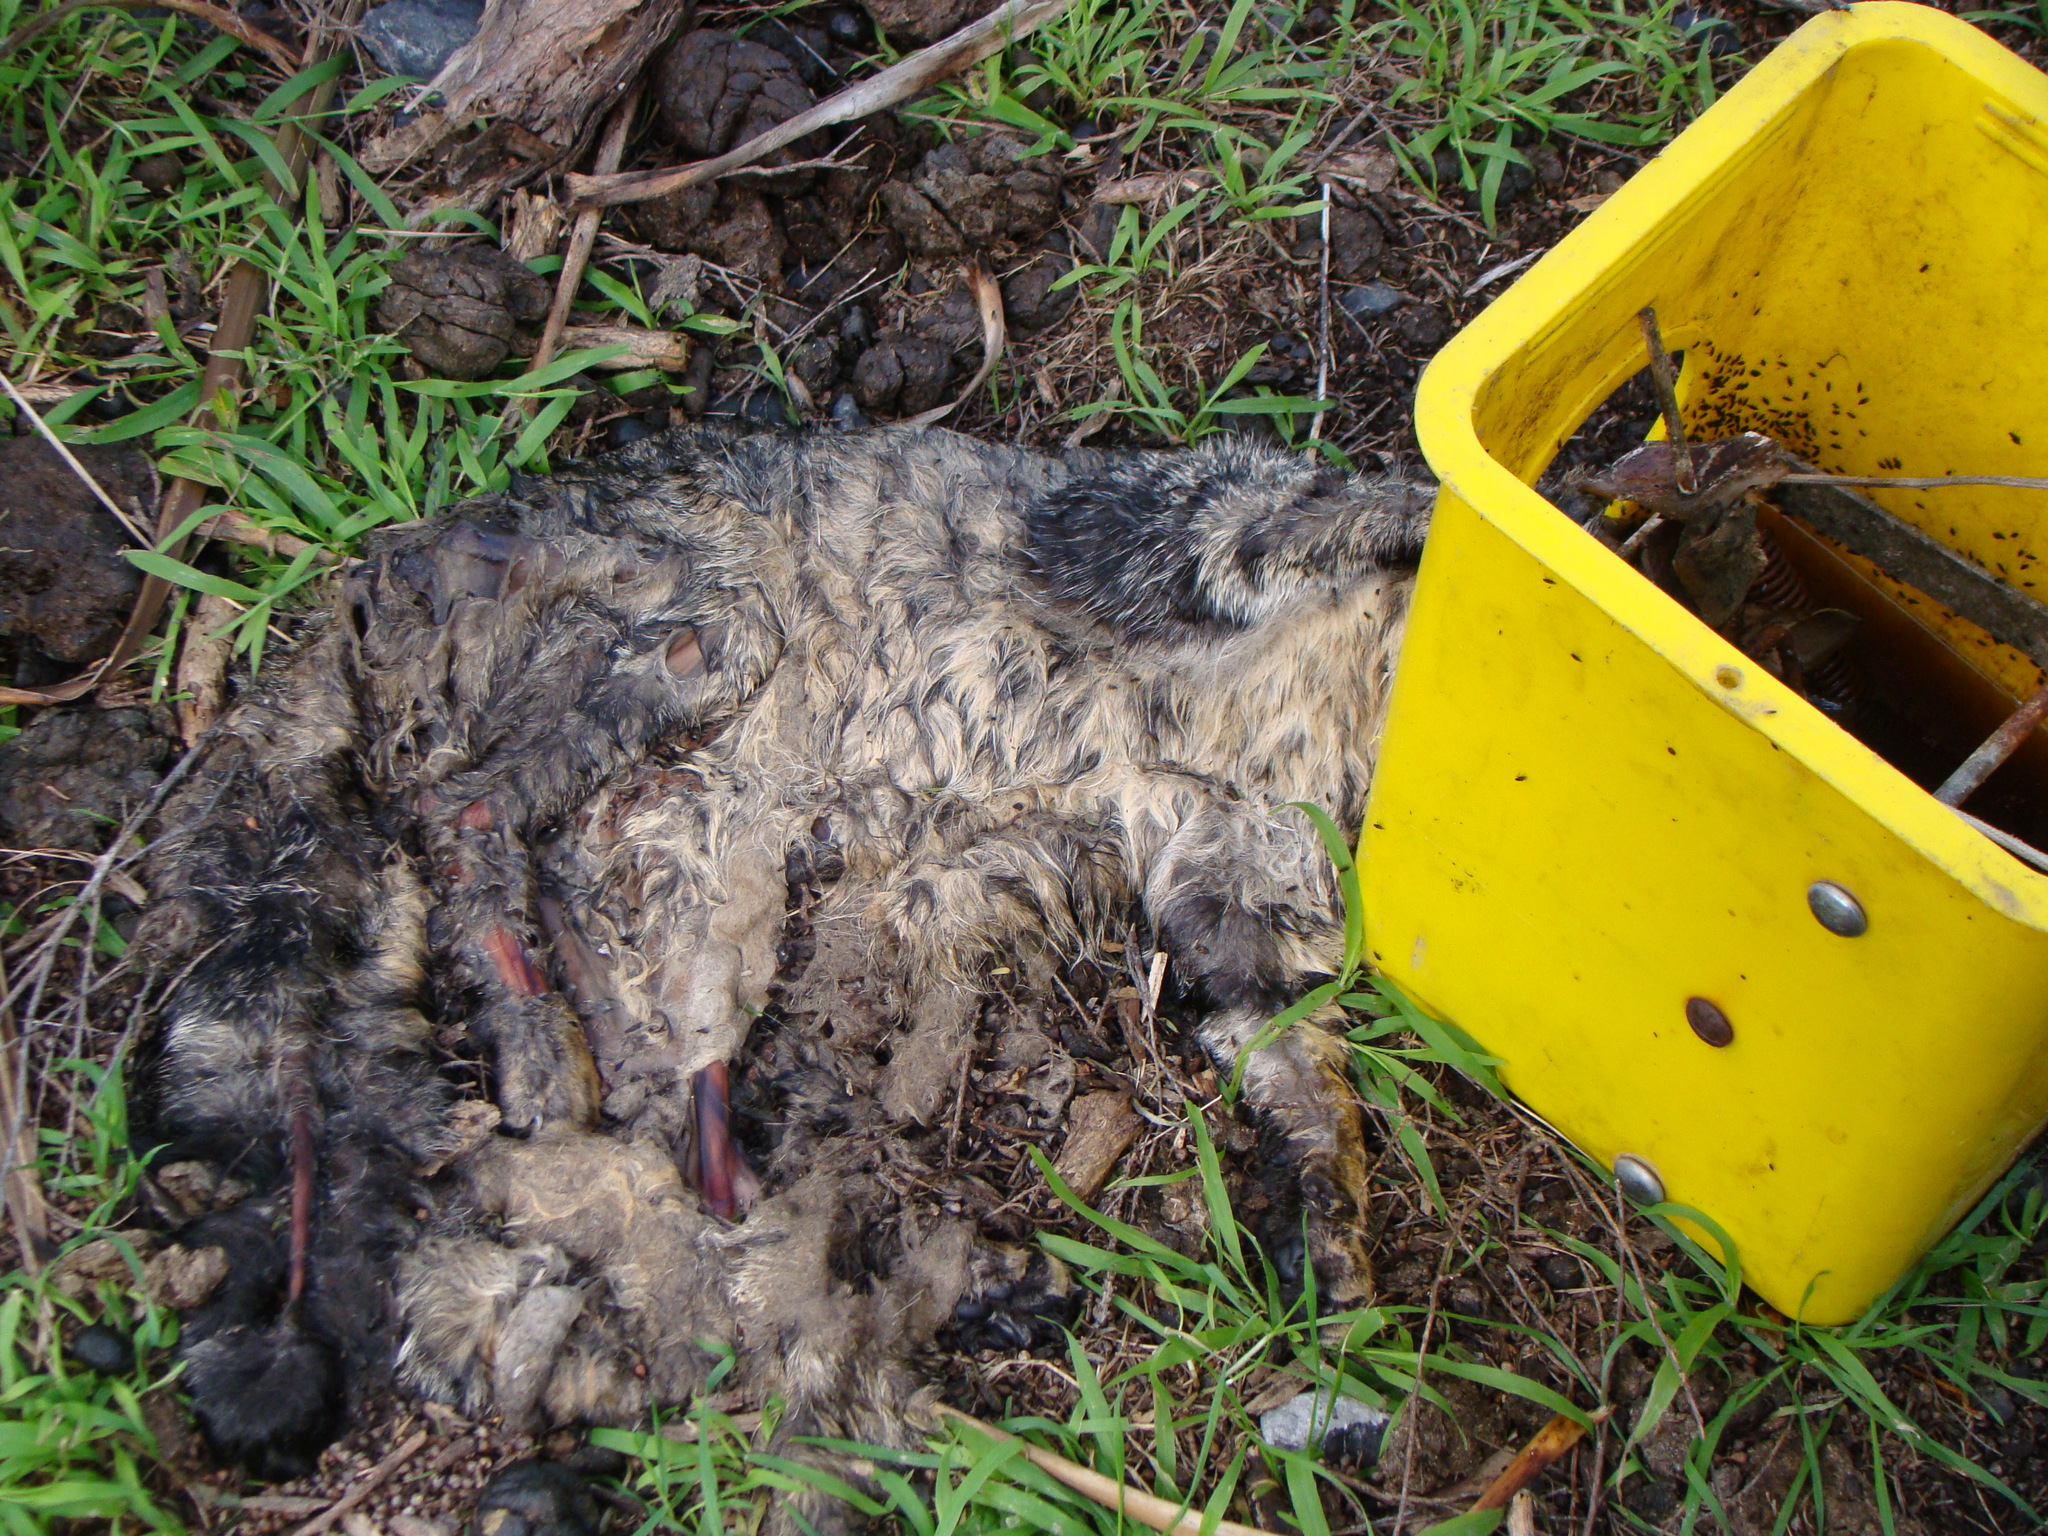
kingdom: Animalia
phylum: Chordata
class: Mammalia
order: Carnivora
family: Felidae
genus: Felis
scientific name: Felis catus
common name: Domestic cat
